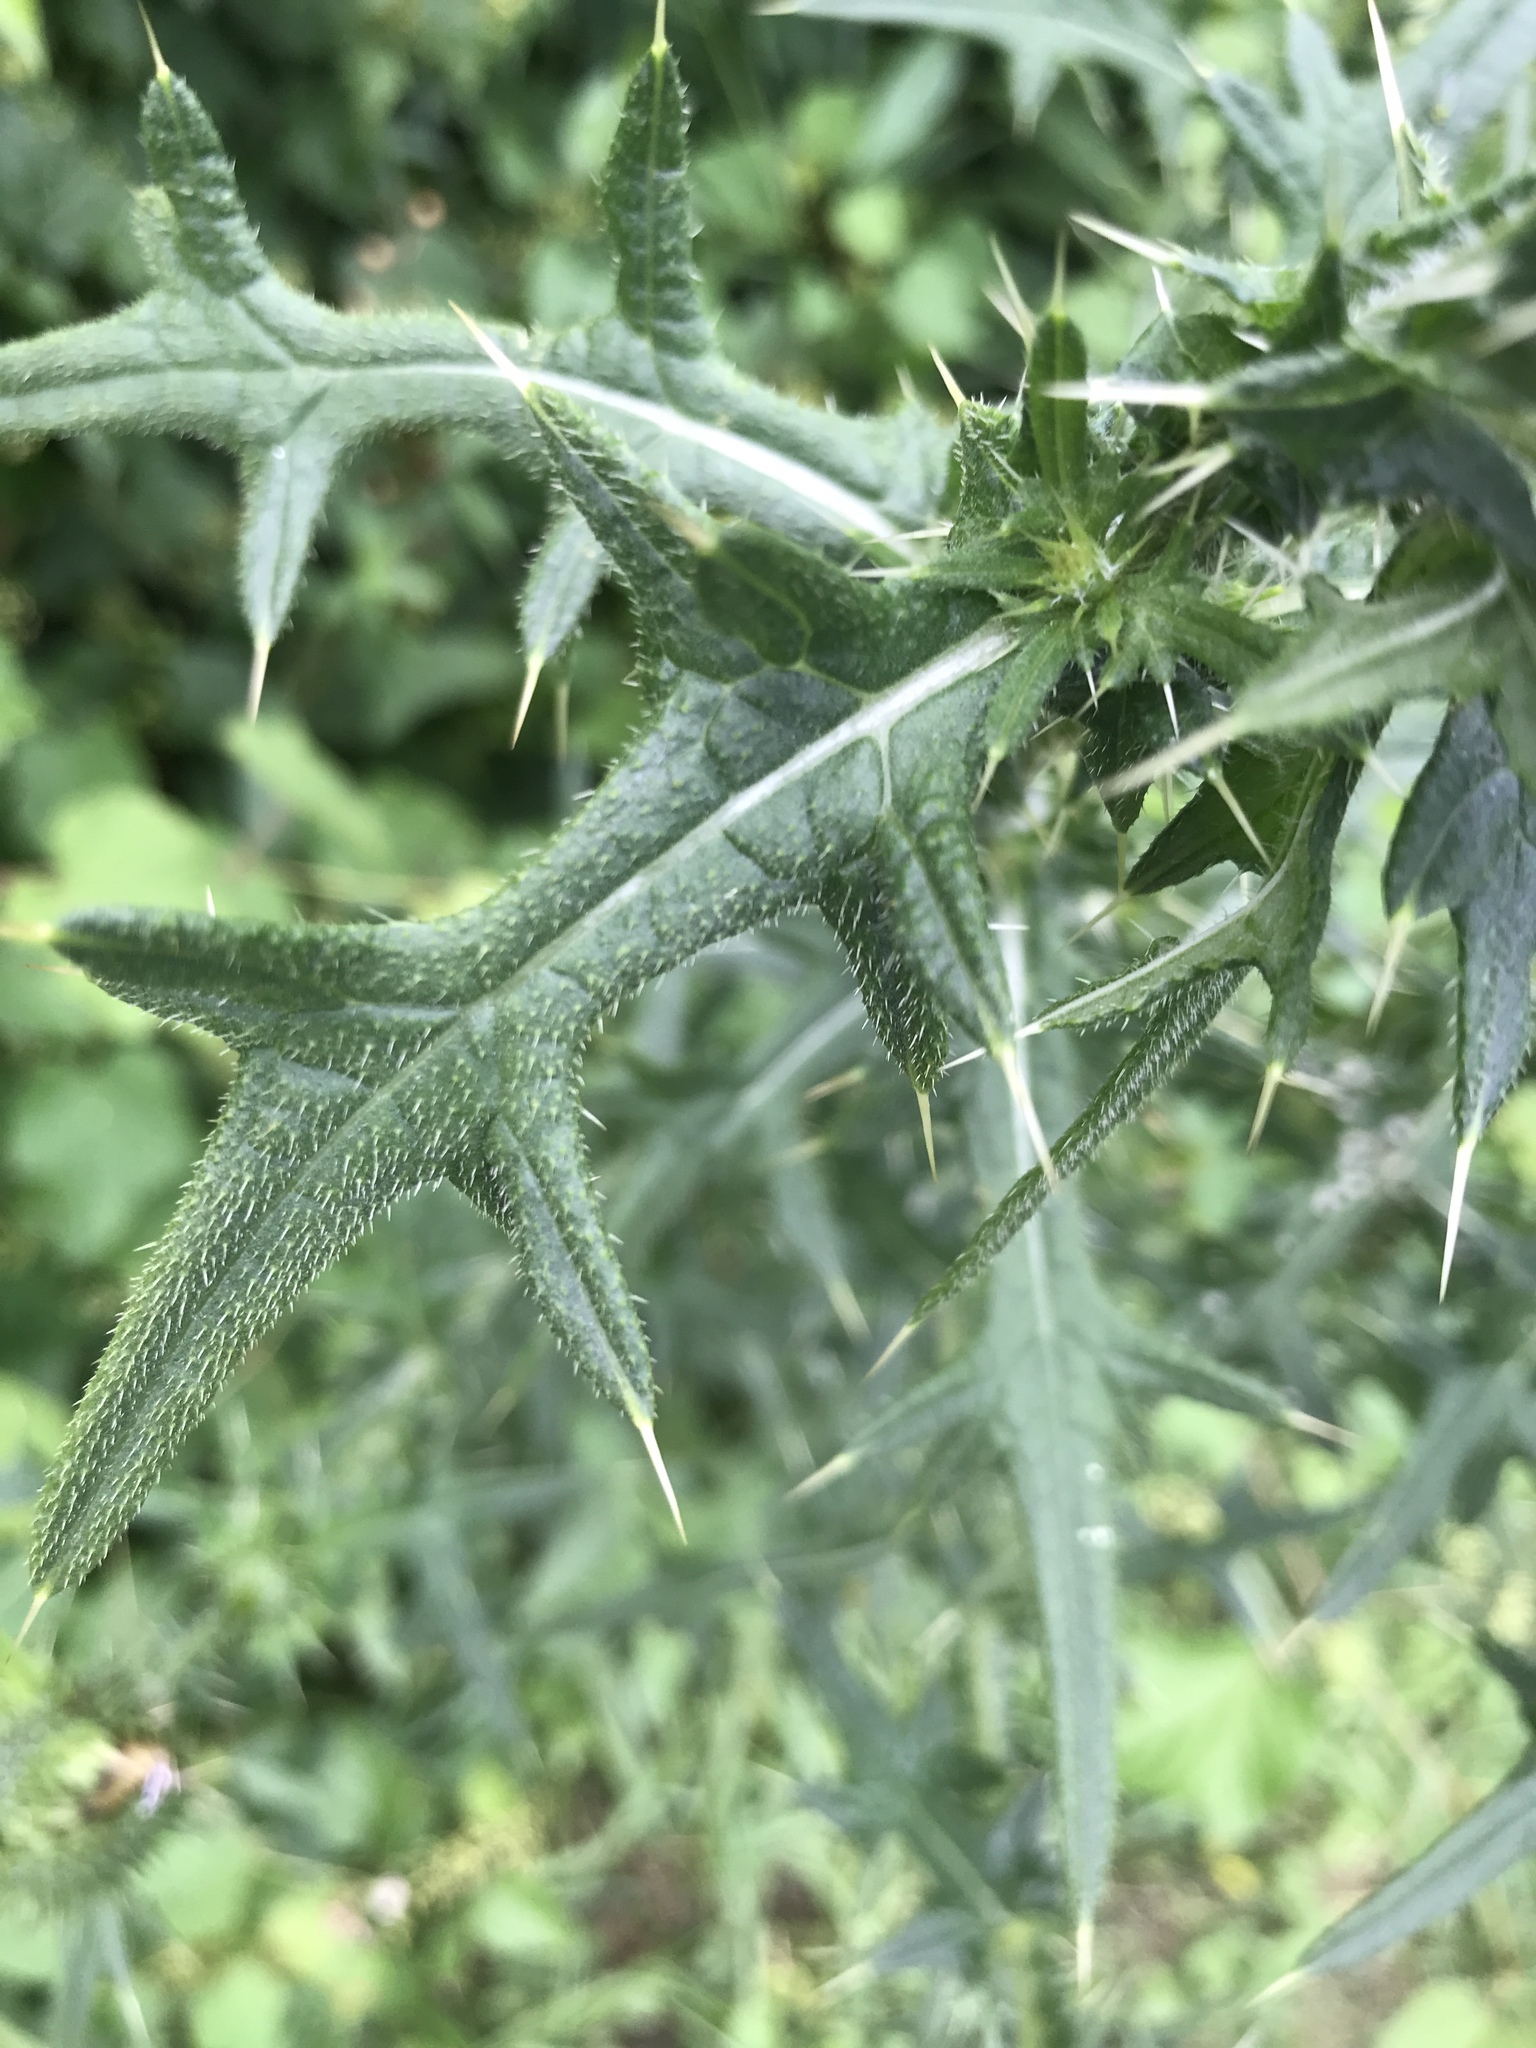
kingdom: Plantae
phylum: Tracheophyta
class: Magnoliopsida
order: Asterales
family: Asteraceae
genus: Cirsium
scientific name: Cirsium vulgare
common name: Bull thistle
